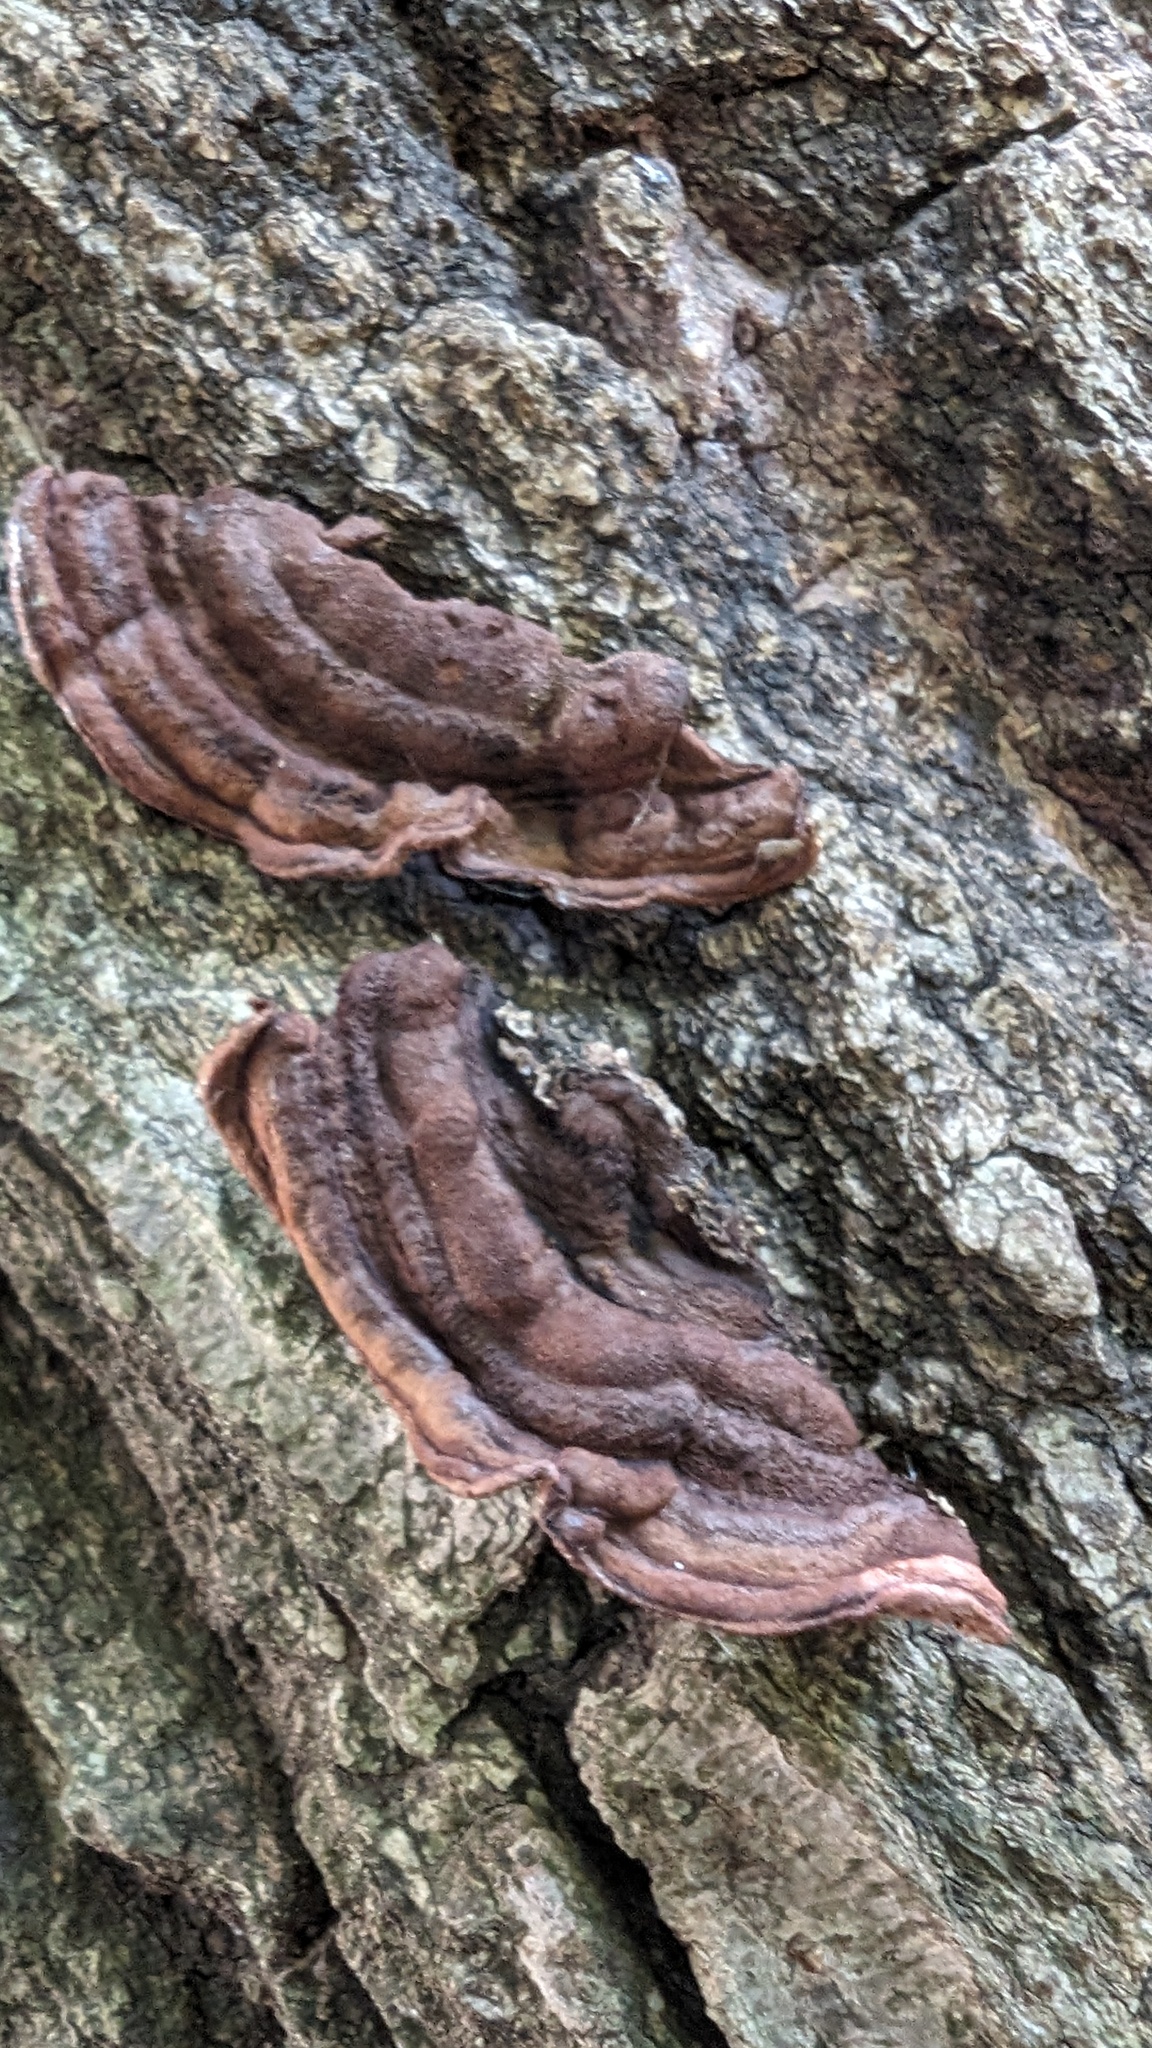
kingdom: Fungi
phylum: Basidiomycota
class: Agaricomycetes
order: Corticiales
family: Punctulariaceae
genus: Punctularia
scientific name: Punctularia strigosozonata
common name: White-rot fungus
